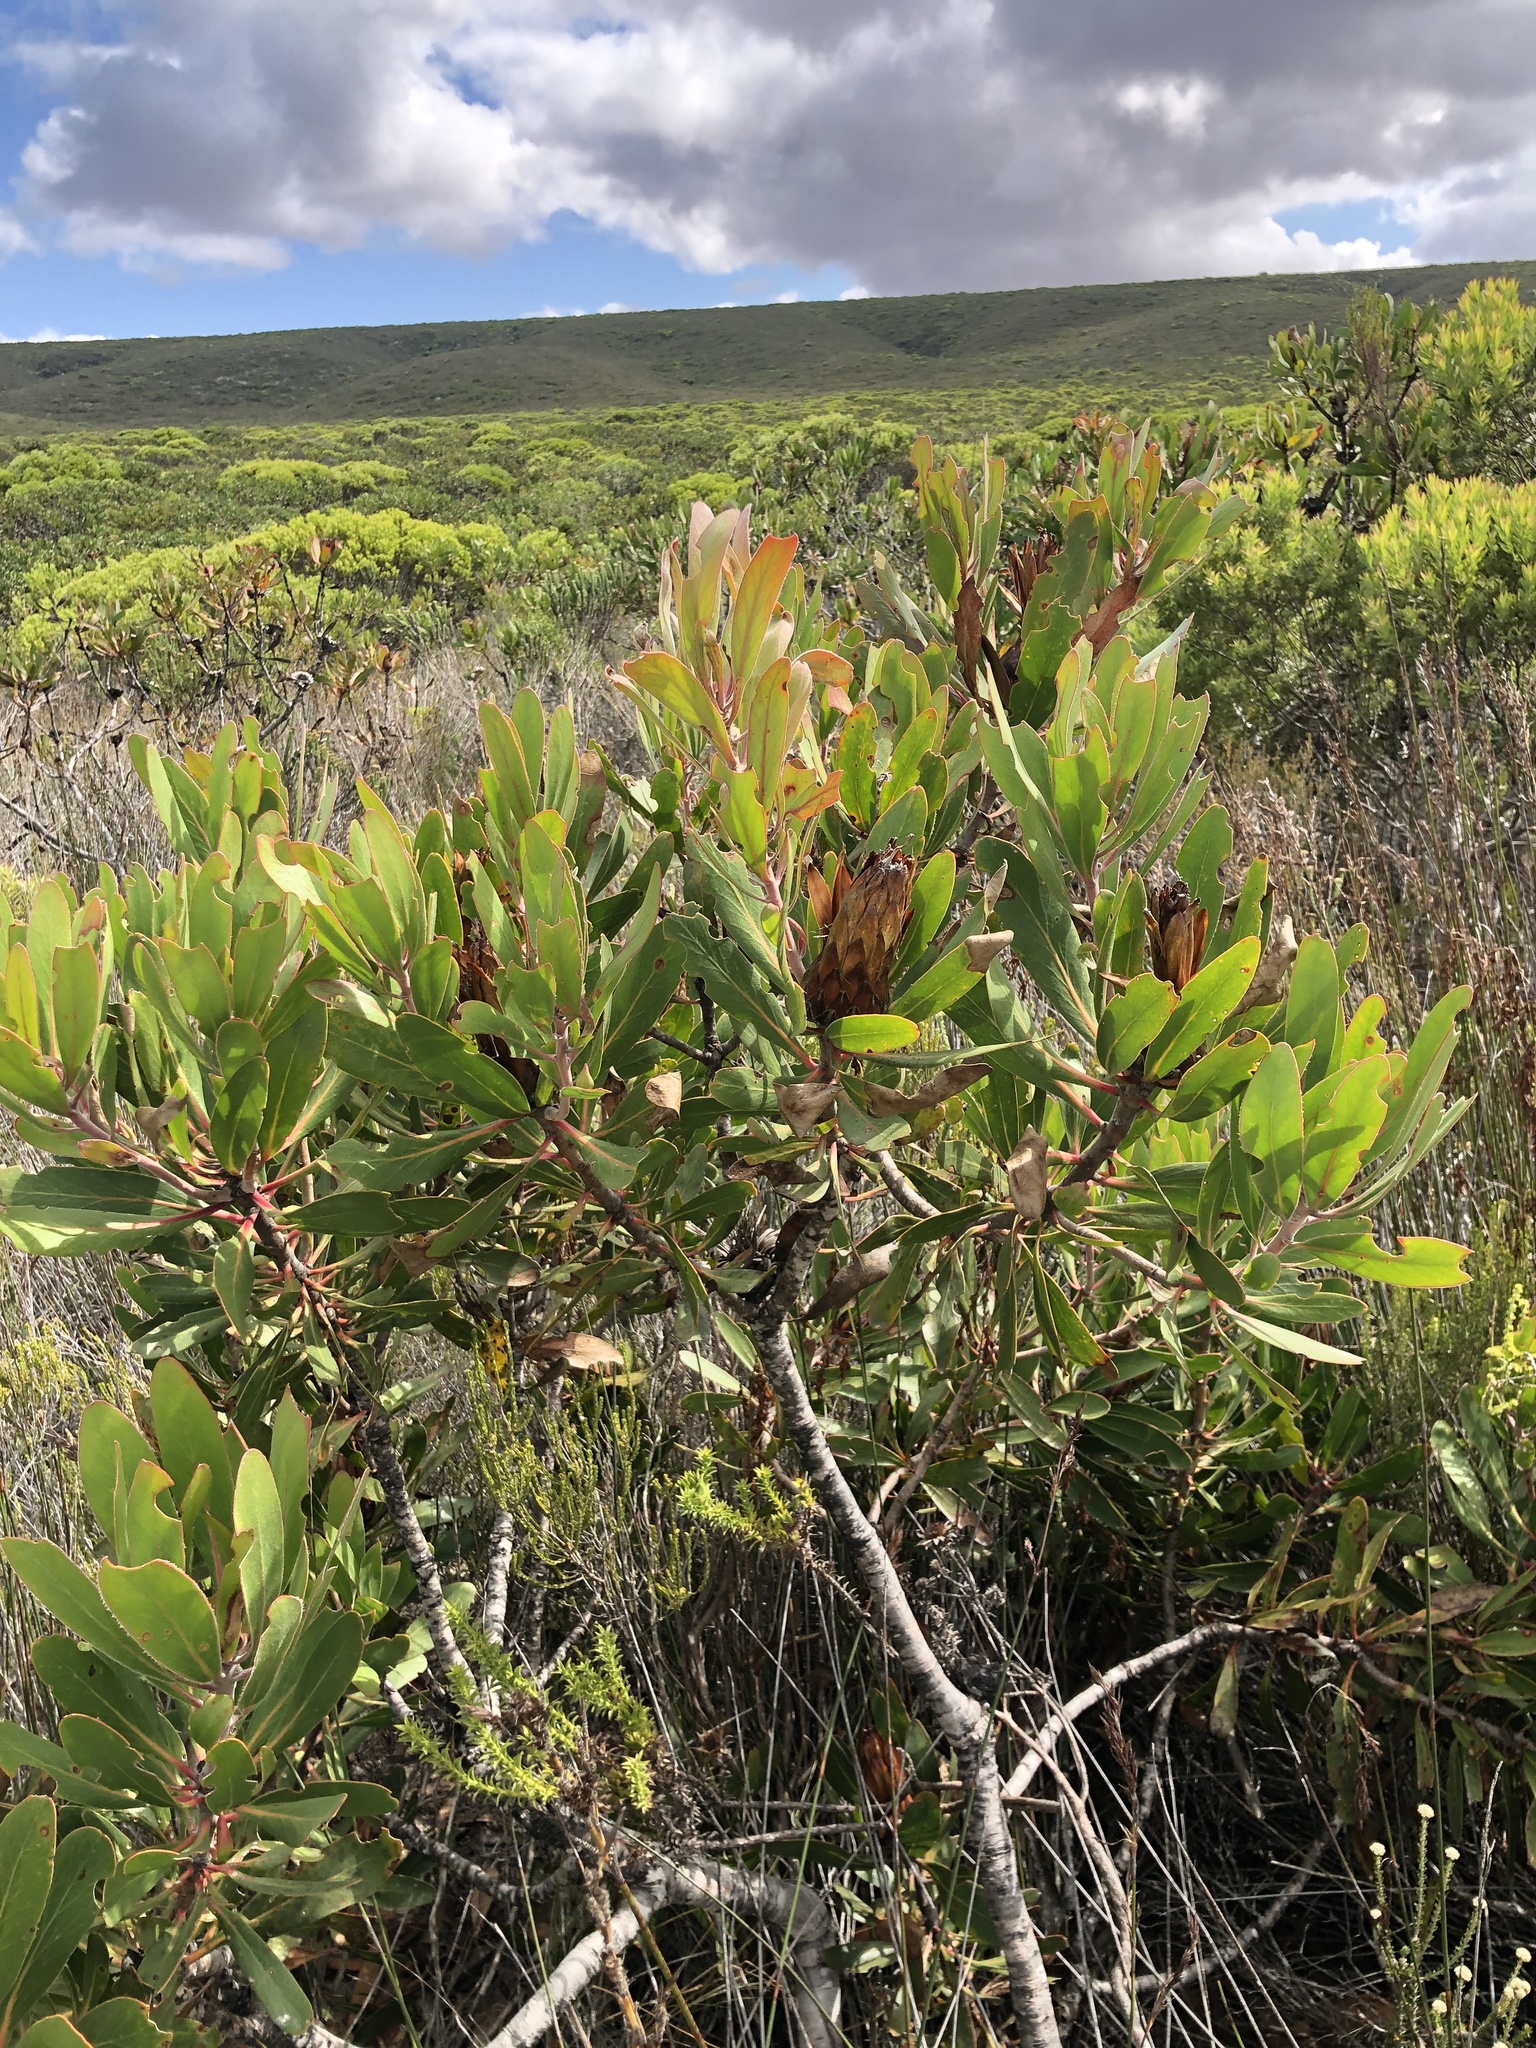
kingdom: Plantae
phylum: Tracheophyta
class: Magnoliopsida
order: Proteales
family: Proteaceae
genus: Protea
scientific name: Protea obtusifolia
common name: Bredasdorp sugarbush
